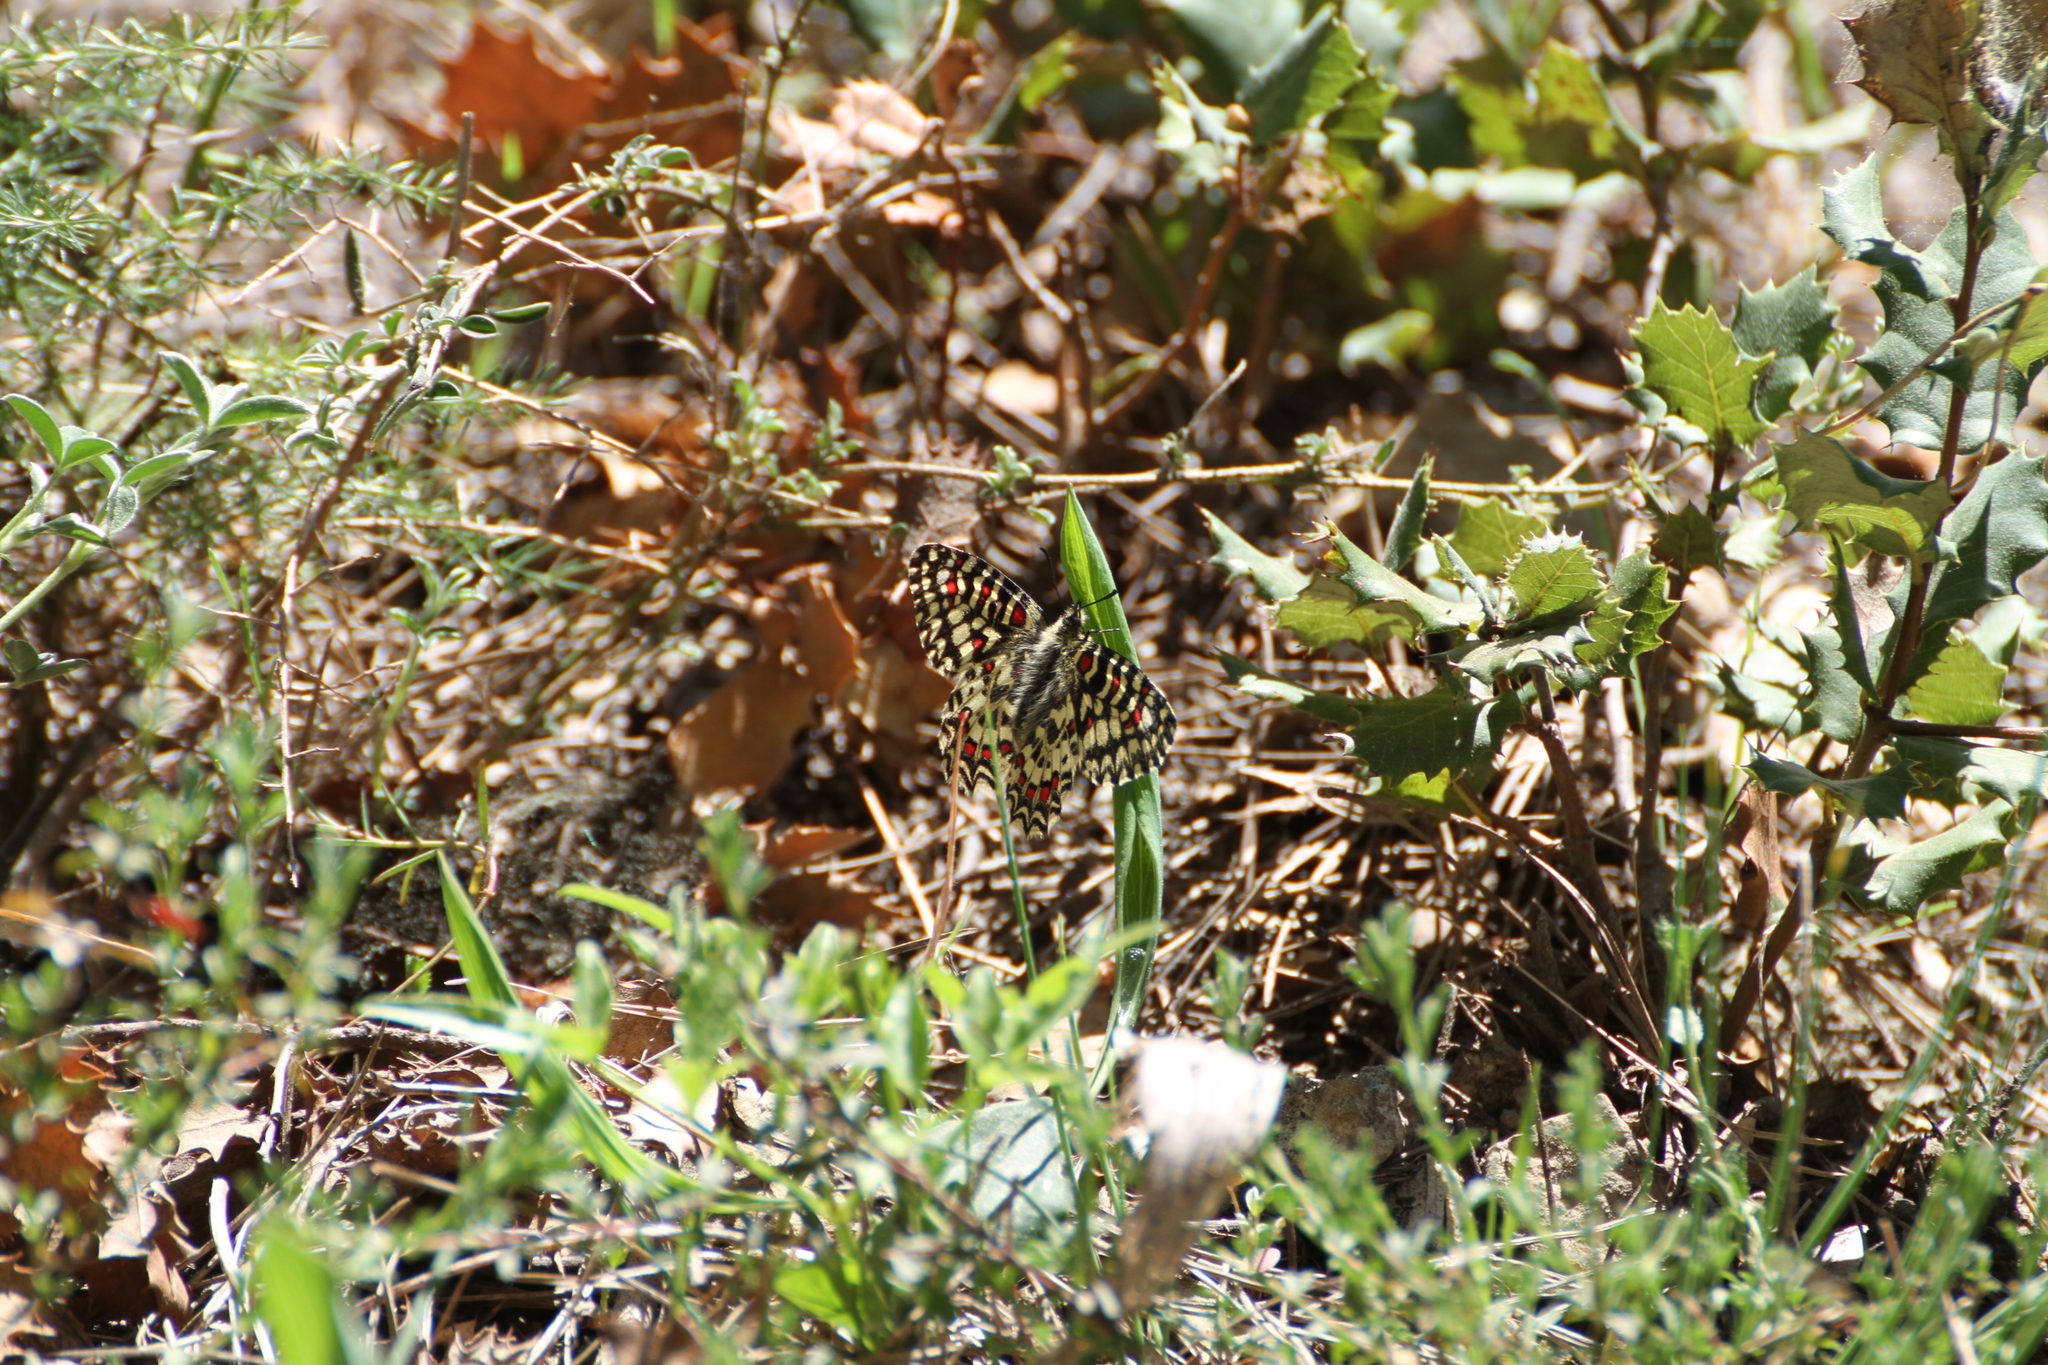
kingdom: Animalia
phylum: Arthropoda
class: Insecta
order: Lepidoptera
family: Papilionidae
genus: Zerynthia
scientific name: Zerynthia rumina
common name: Spanish festoon
